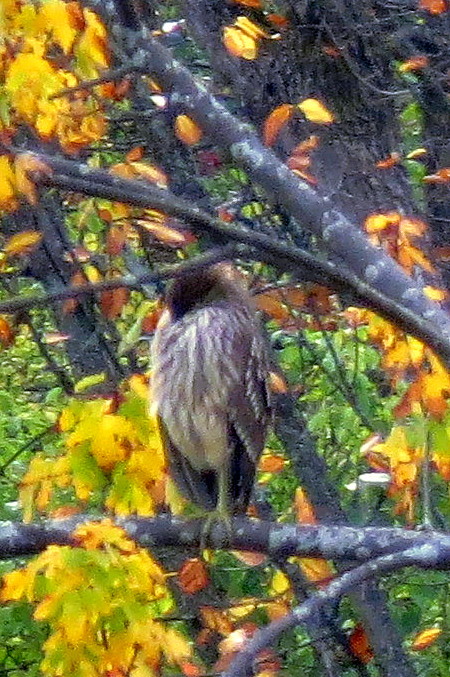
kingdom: Animalia
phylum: Chordata
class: Aves
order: Pelecaniformes
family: Ardeidae
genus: Nycticorax
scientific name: Nycticorax nycticorax
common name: Black-crowned night heron
